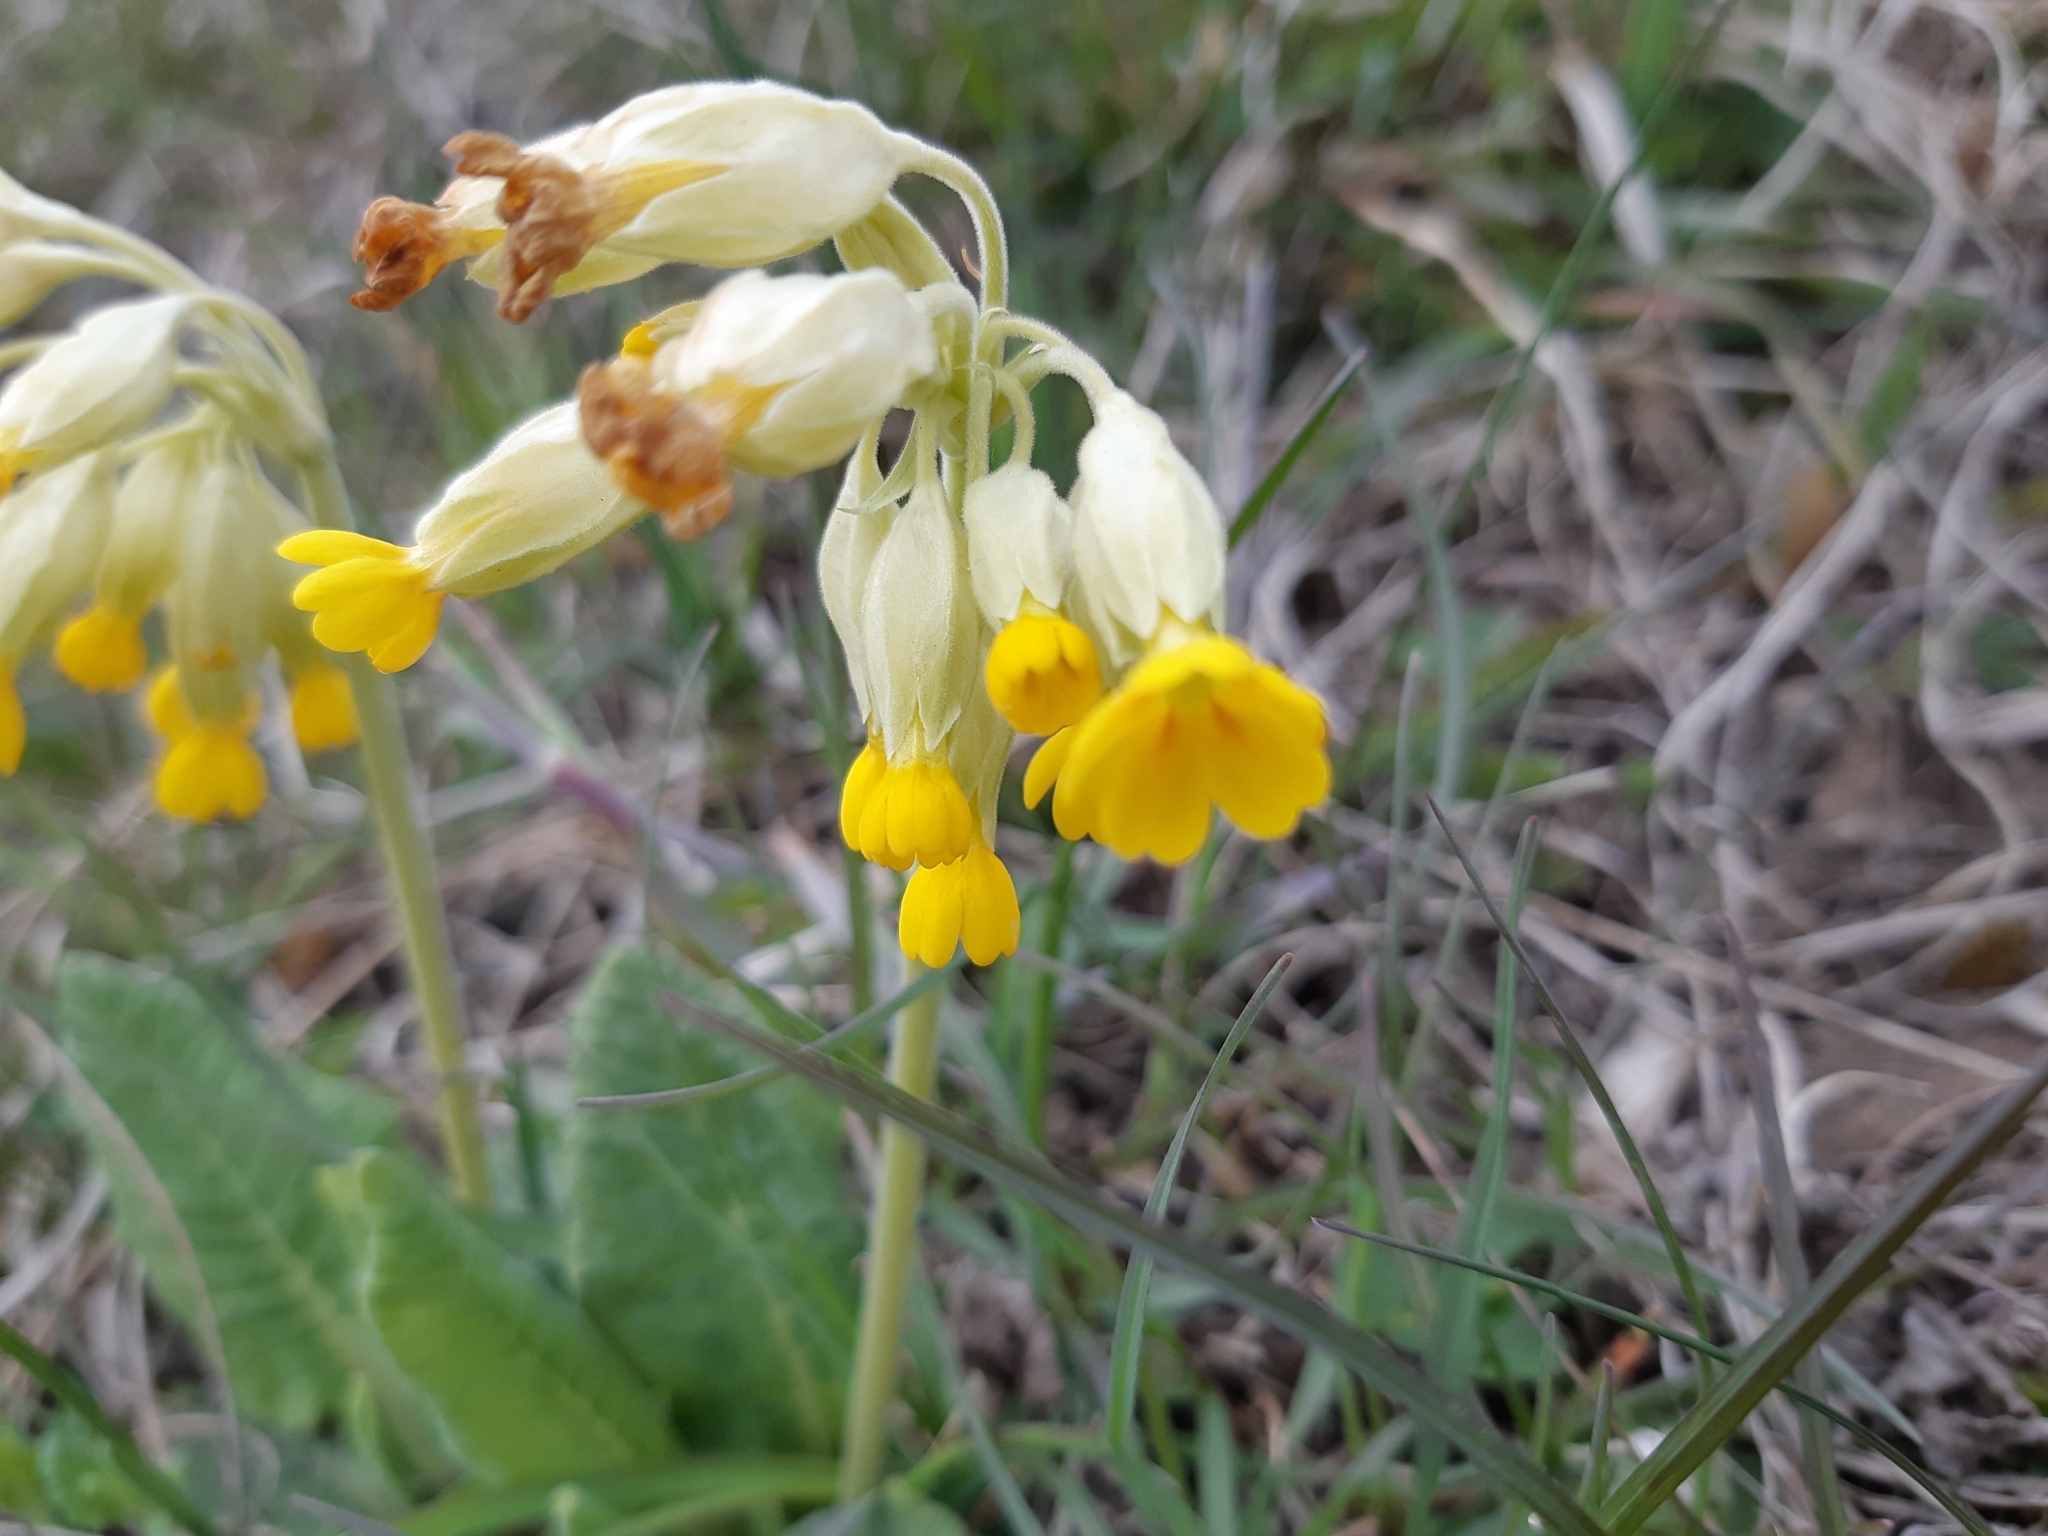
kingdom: Plantae
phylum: Tracheophyta
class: Magnoliopsida
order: Ericales
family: Primulaceae
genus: Primula
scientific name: Primula veris
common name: Cowslip
